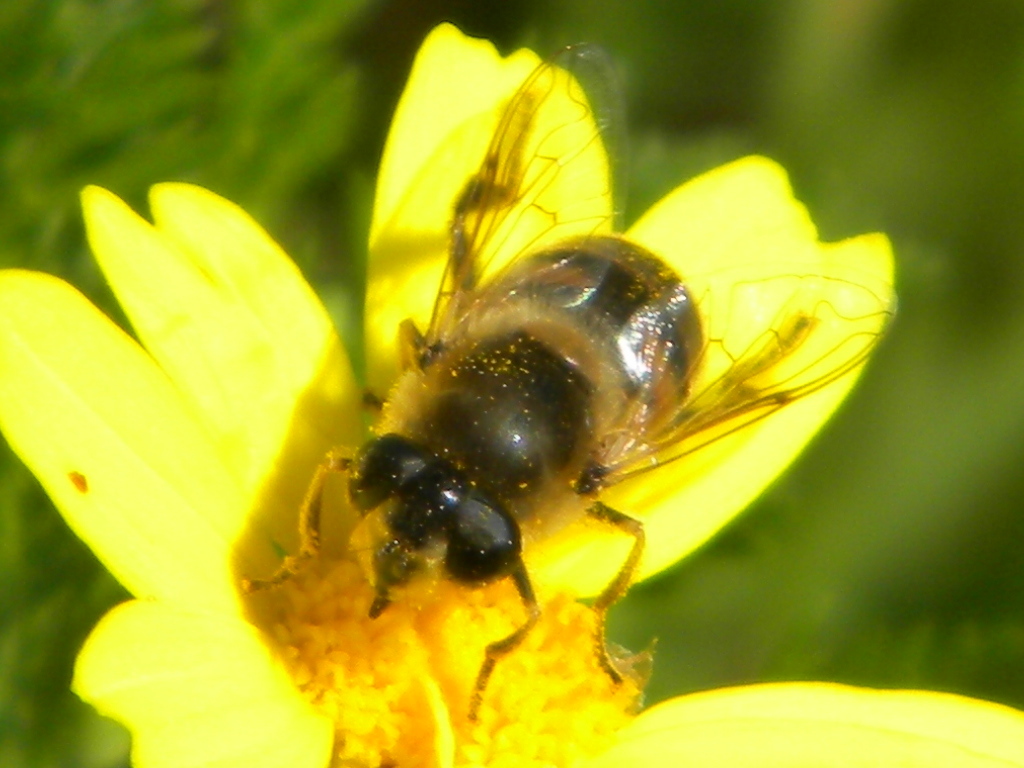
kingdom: Animalia
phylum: Arthropoda
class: Insecta
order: Diptera
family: Syrphidae
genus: Eristalis
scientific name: Eristalis tenax
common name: Drone fly
